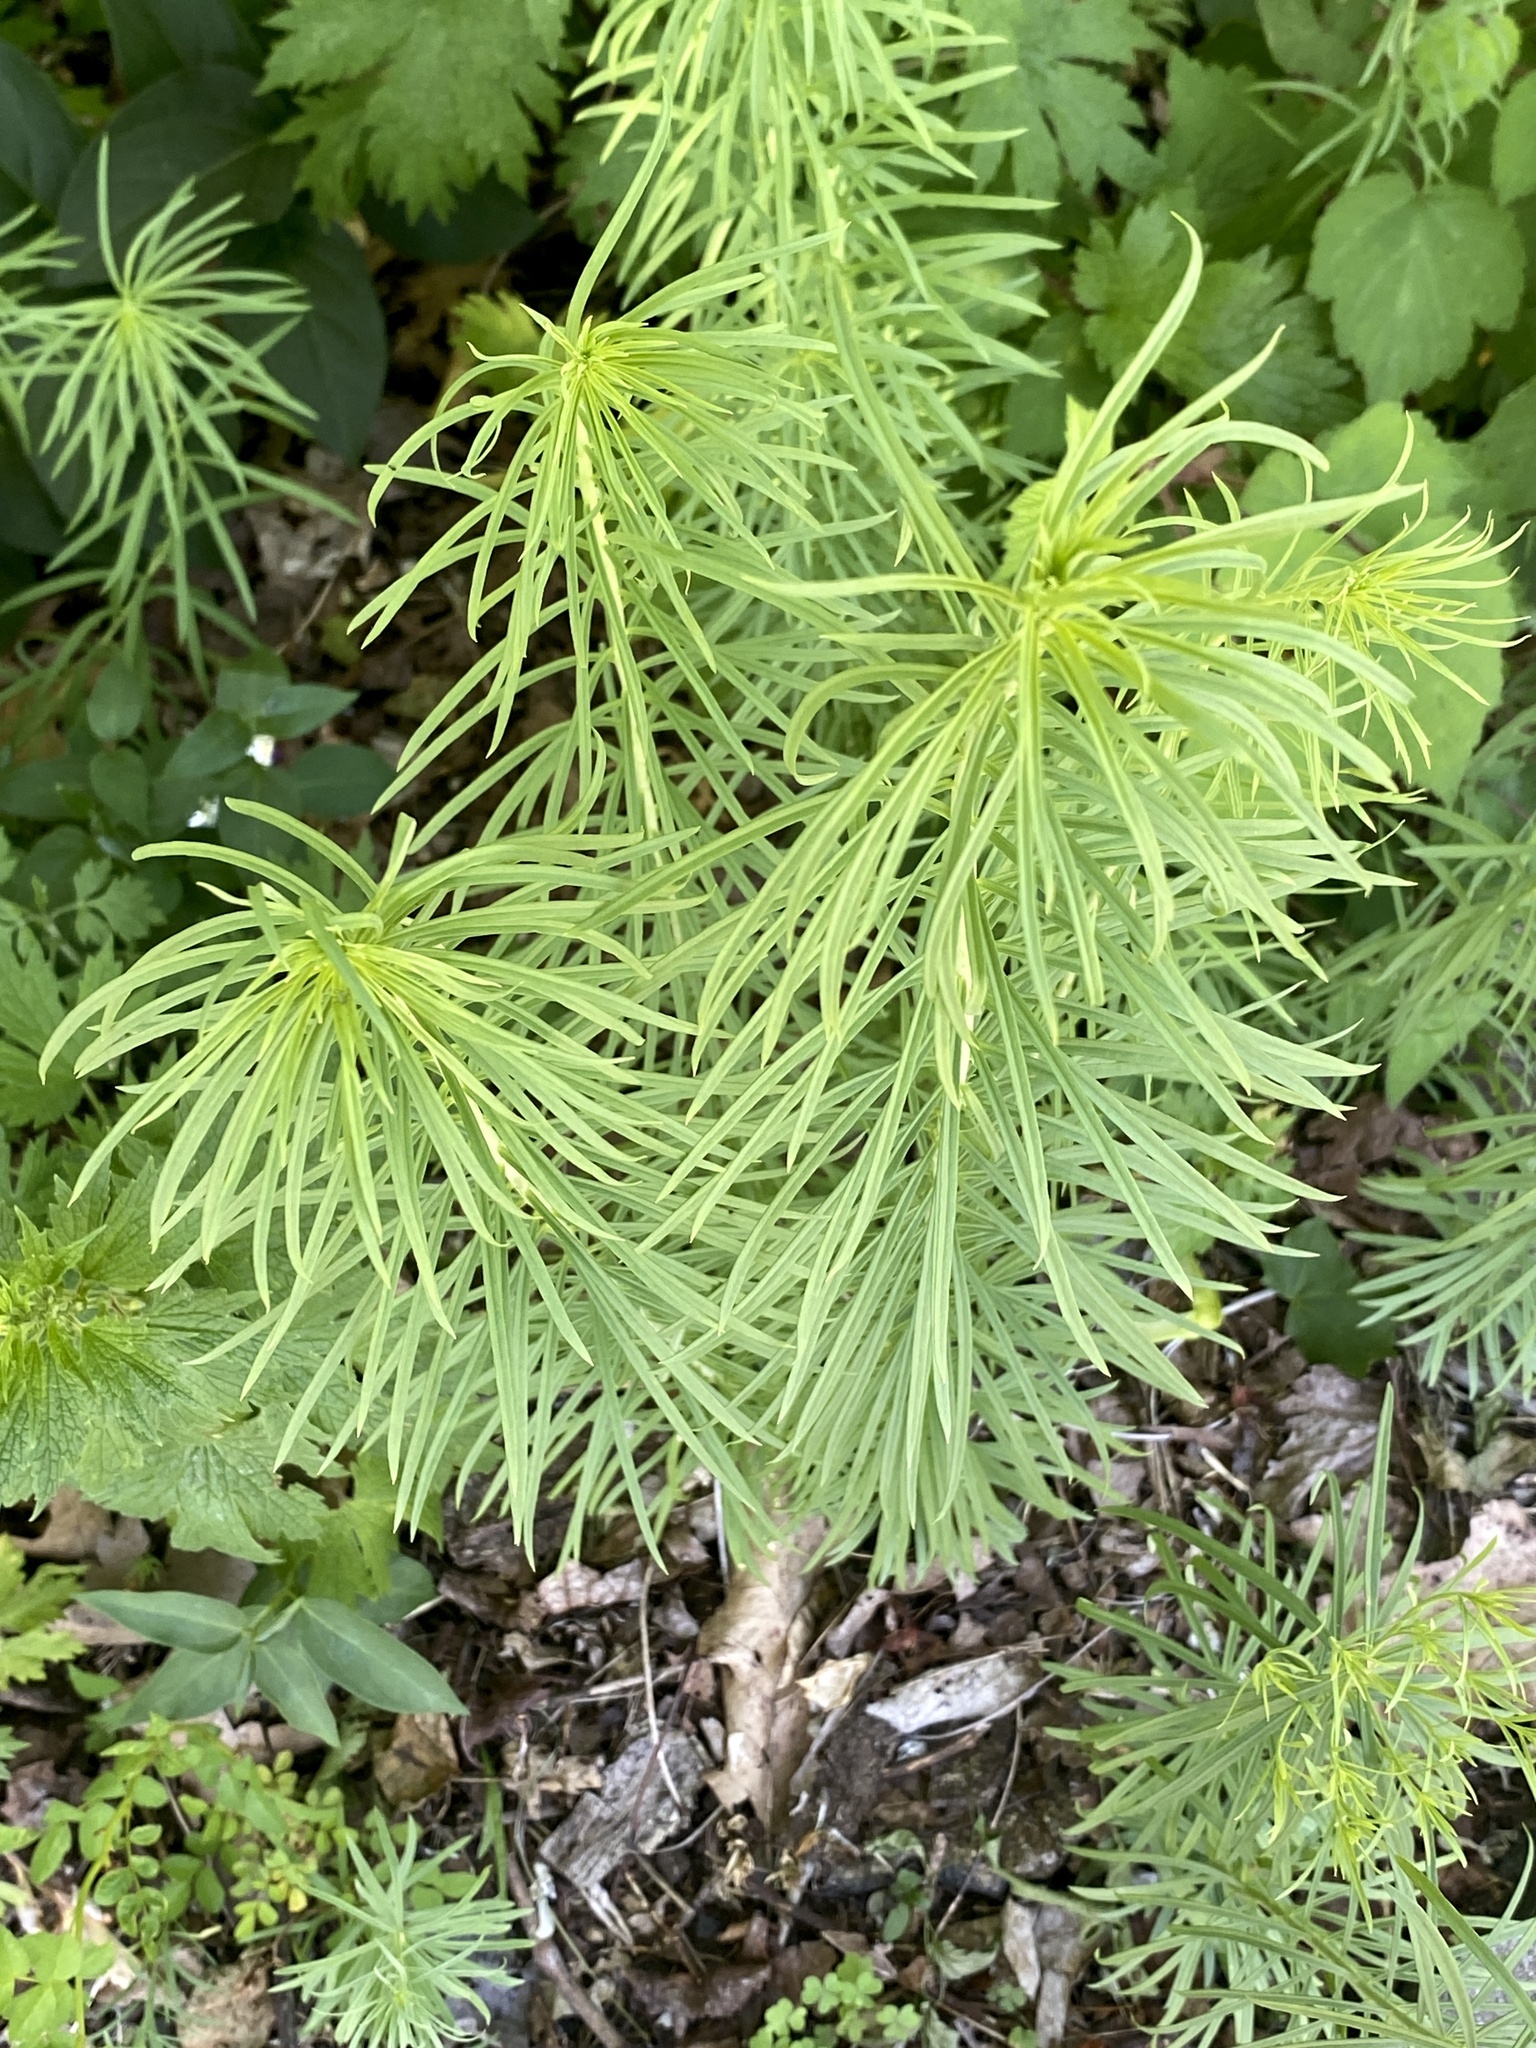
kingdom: Plantae
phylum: Tracheophyta
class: Magnoliopsida
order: Lamiales
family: Plantaginaceae
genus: Linaria
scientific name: Linaria vulgaris
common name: Butter and eggs
